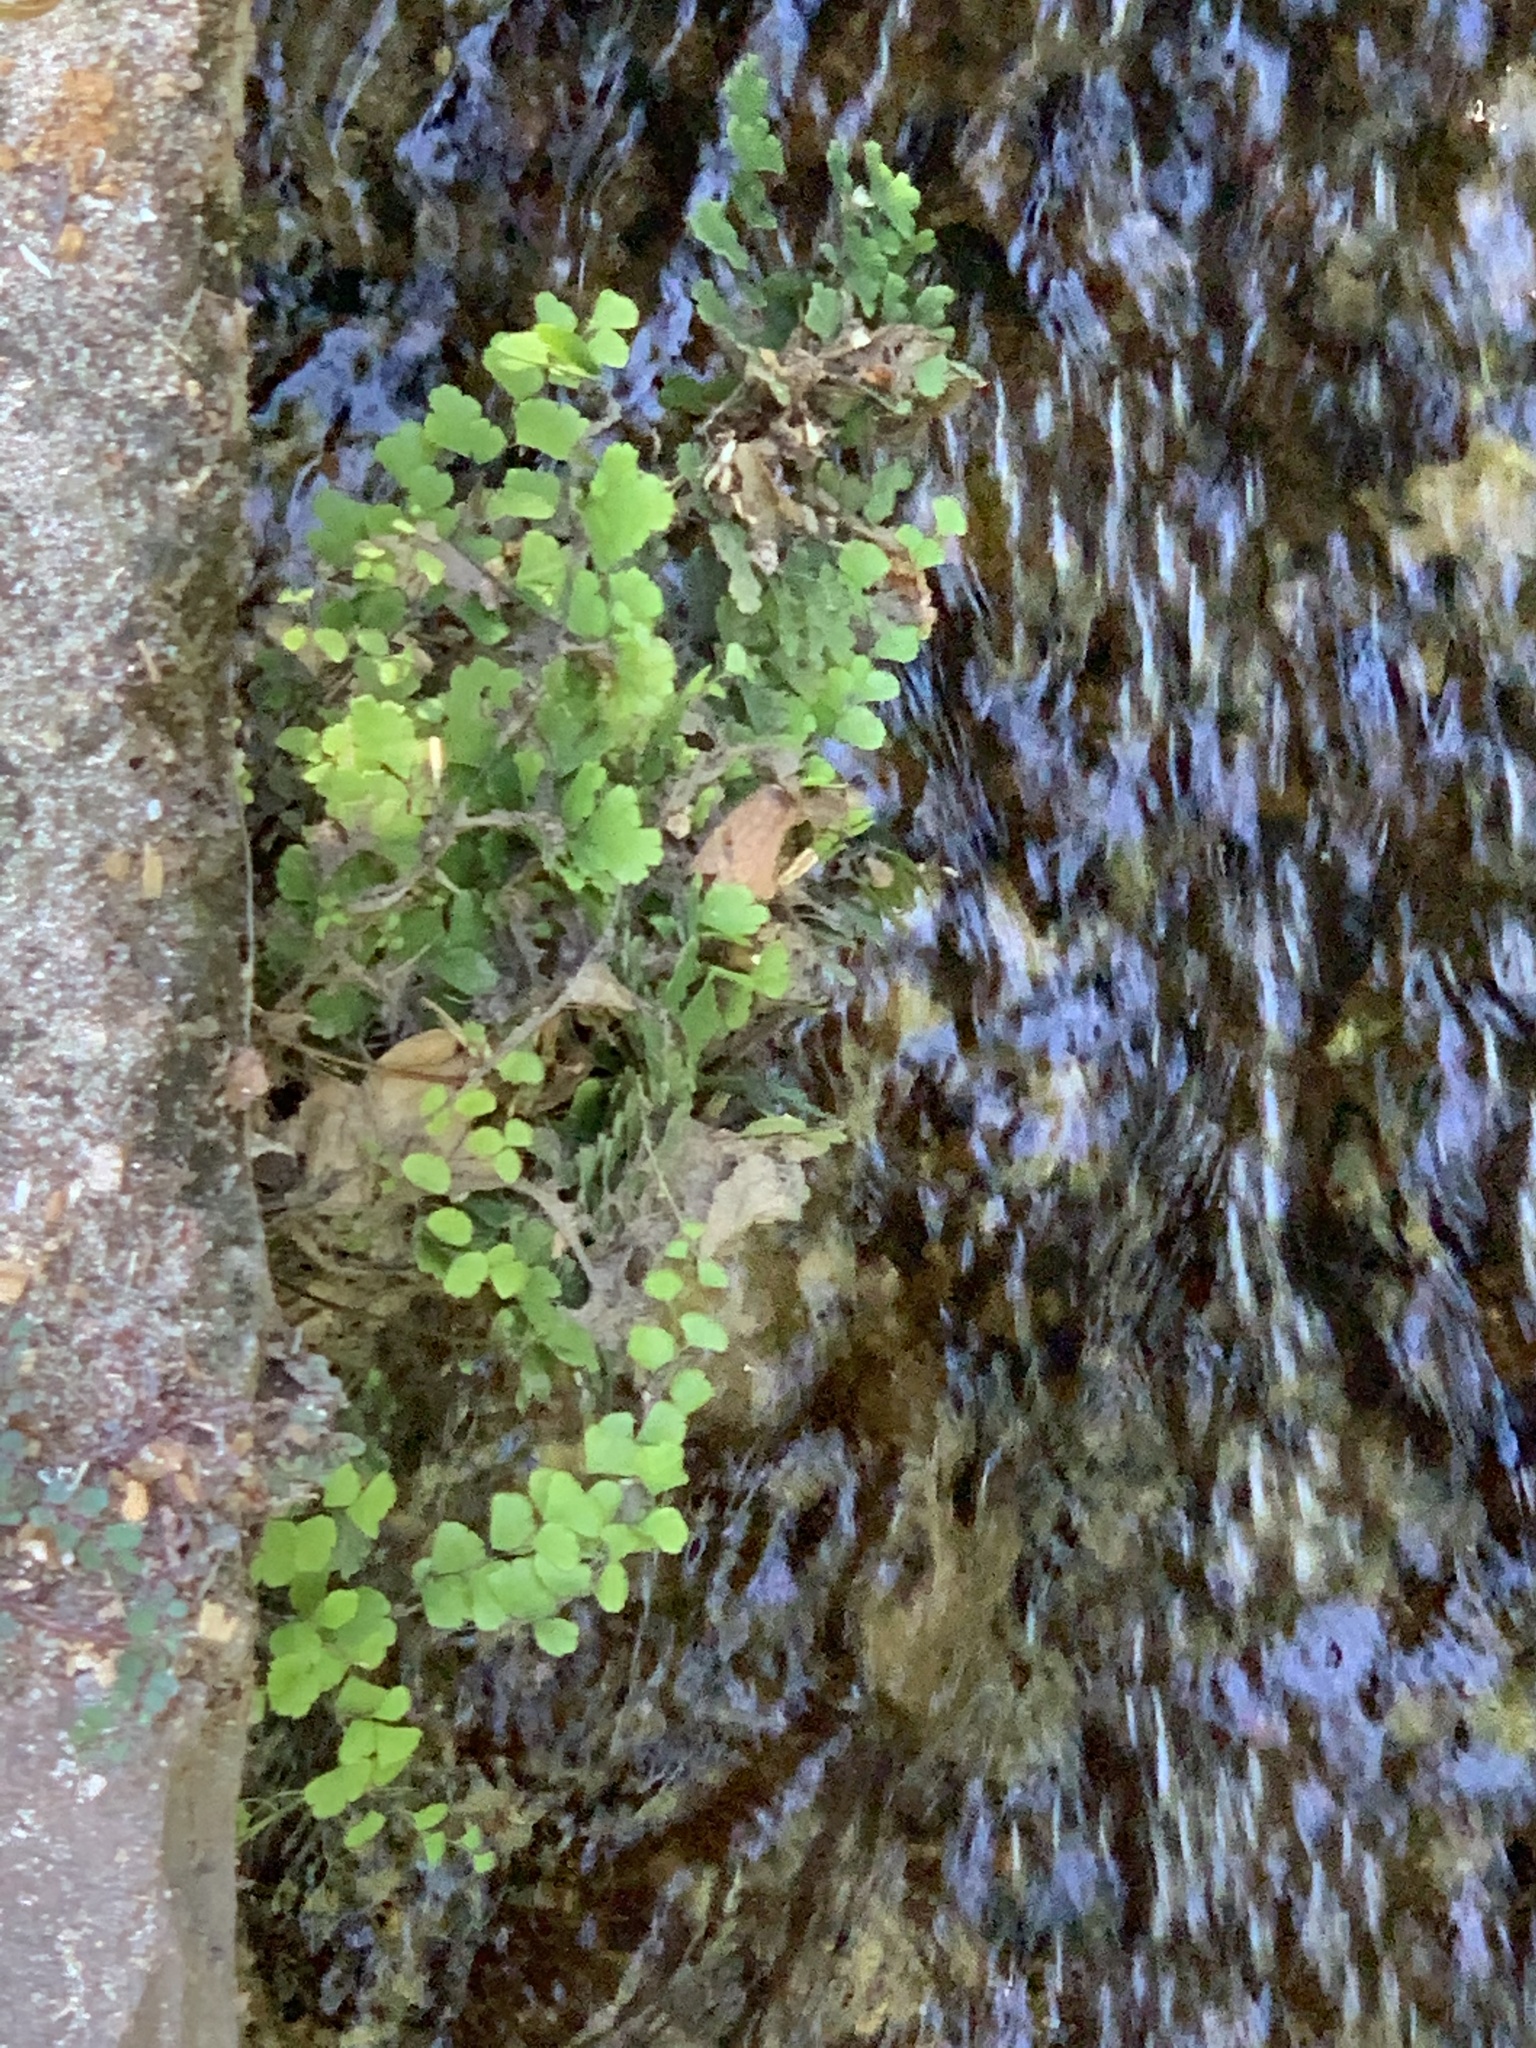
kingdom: Plantae
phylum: Tracheophyta
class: Polypodiopsida
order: Polypodiales
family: Pteridaceae
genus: Adiantum
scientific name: Adiantum capillus-veneris
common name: Maidenhair fern
